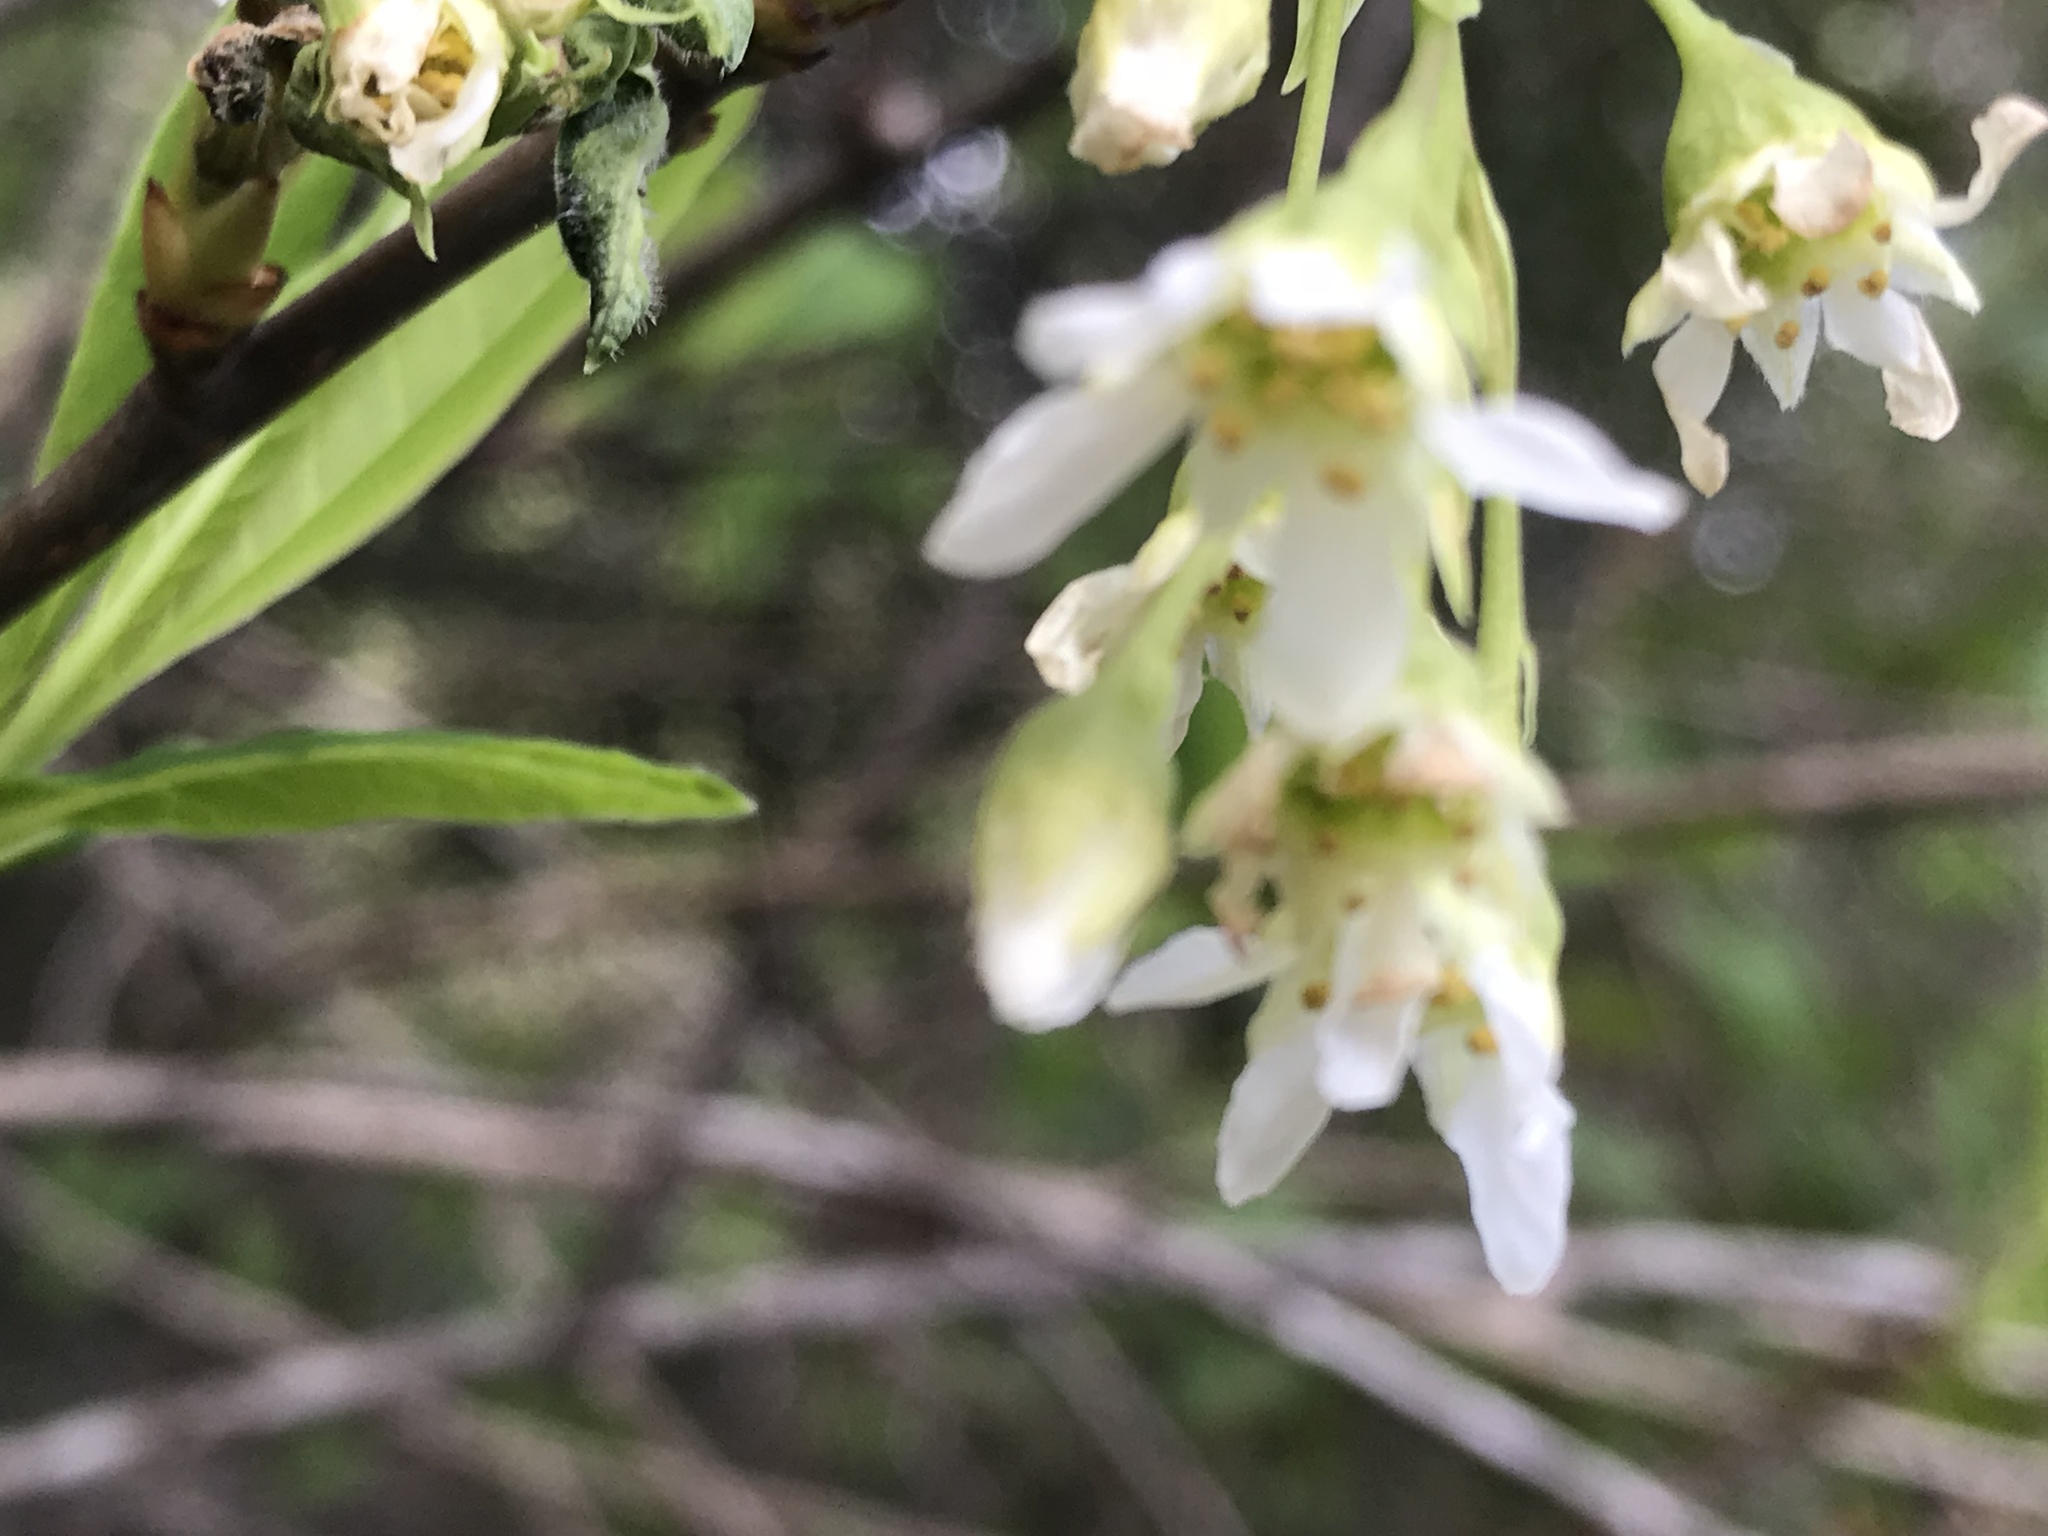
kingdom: Plantae
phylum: Tracheophyta
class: Magnoliopsida
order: Rosales
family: Rosaceae
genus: Oemleria
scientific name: Oemleria cerasiformis
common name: Osoberry
